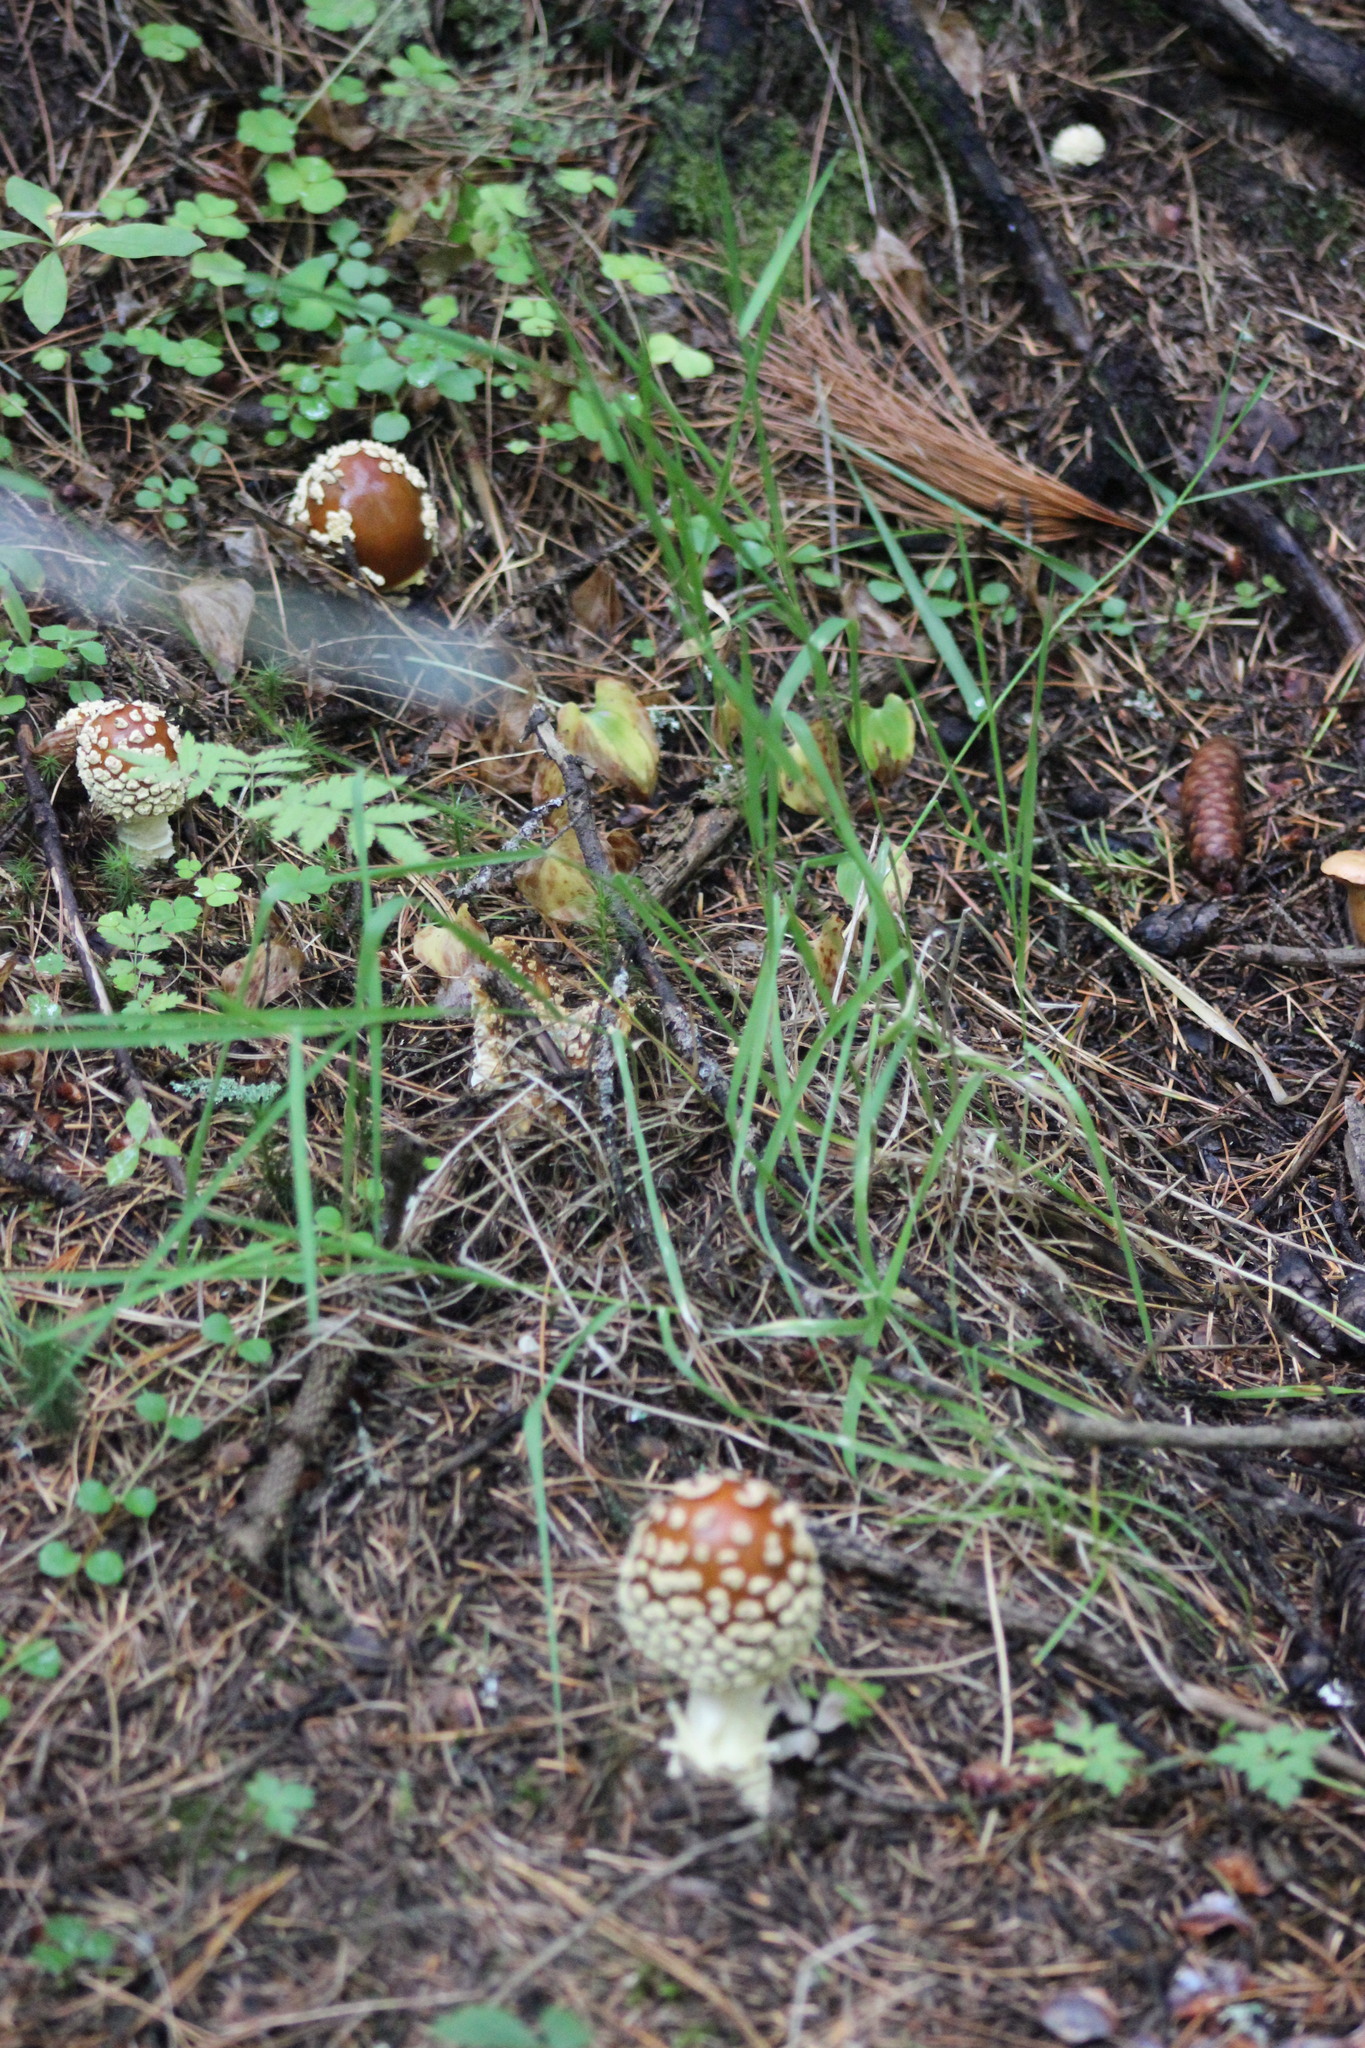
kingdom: Fungi
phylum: Basidiomycota
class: Agaricomycetes
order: Agaricales
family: Amanitaceae
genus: Amanita
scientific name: Amanita regalis
